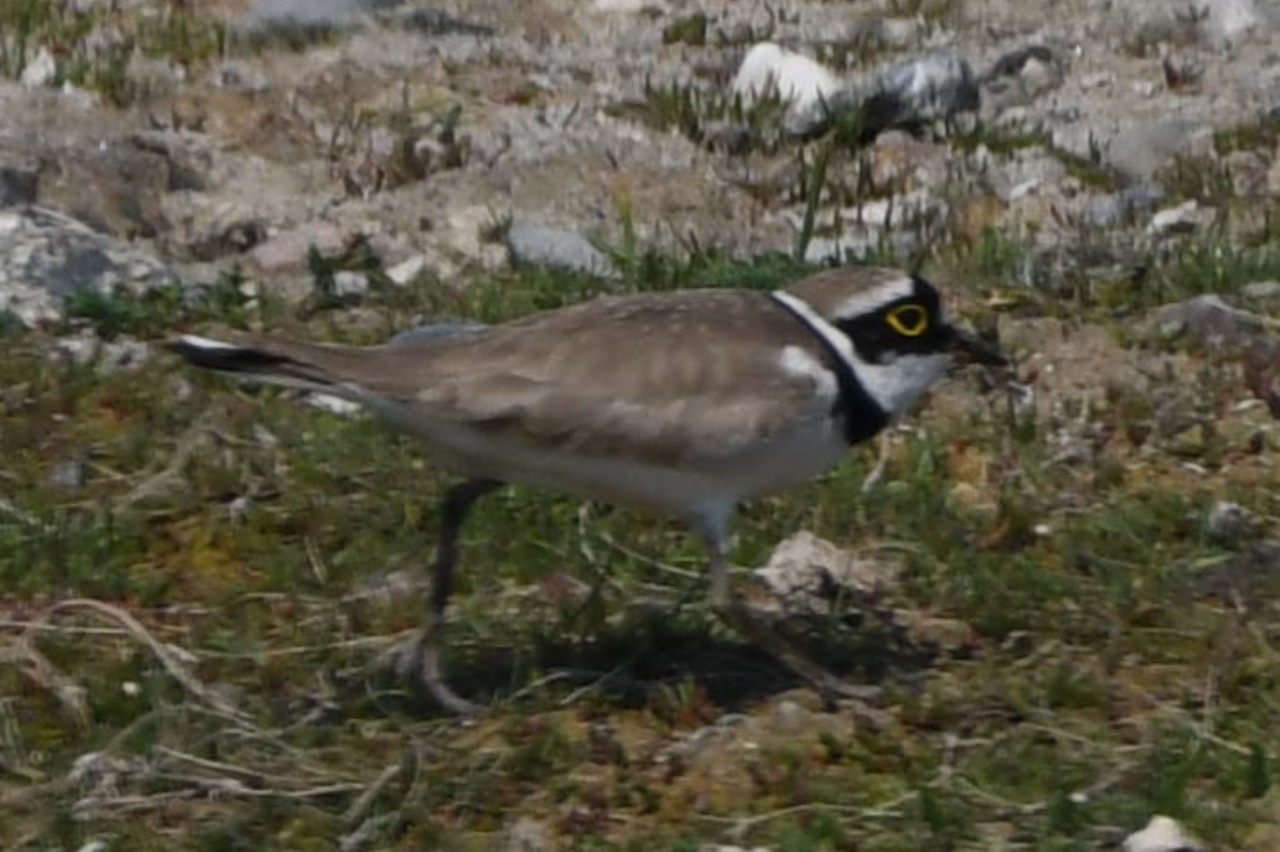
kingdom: Animalia
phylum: Chordata
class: Aves
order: Charadriiformes
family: Charadriidae
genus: Charadrius
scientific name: Charadrius dubius
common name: Little ringed plover
